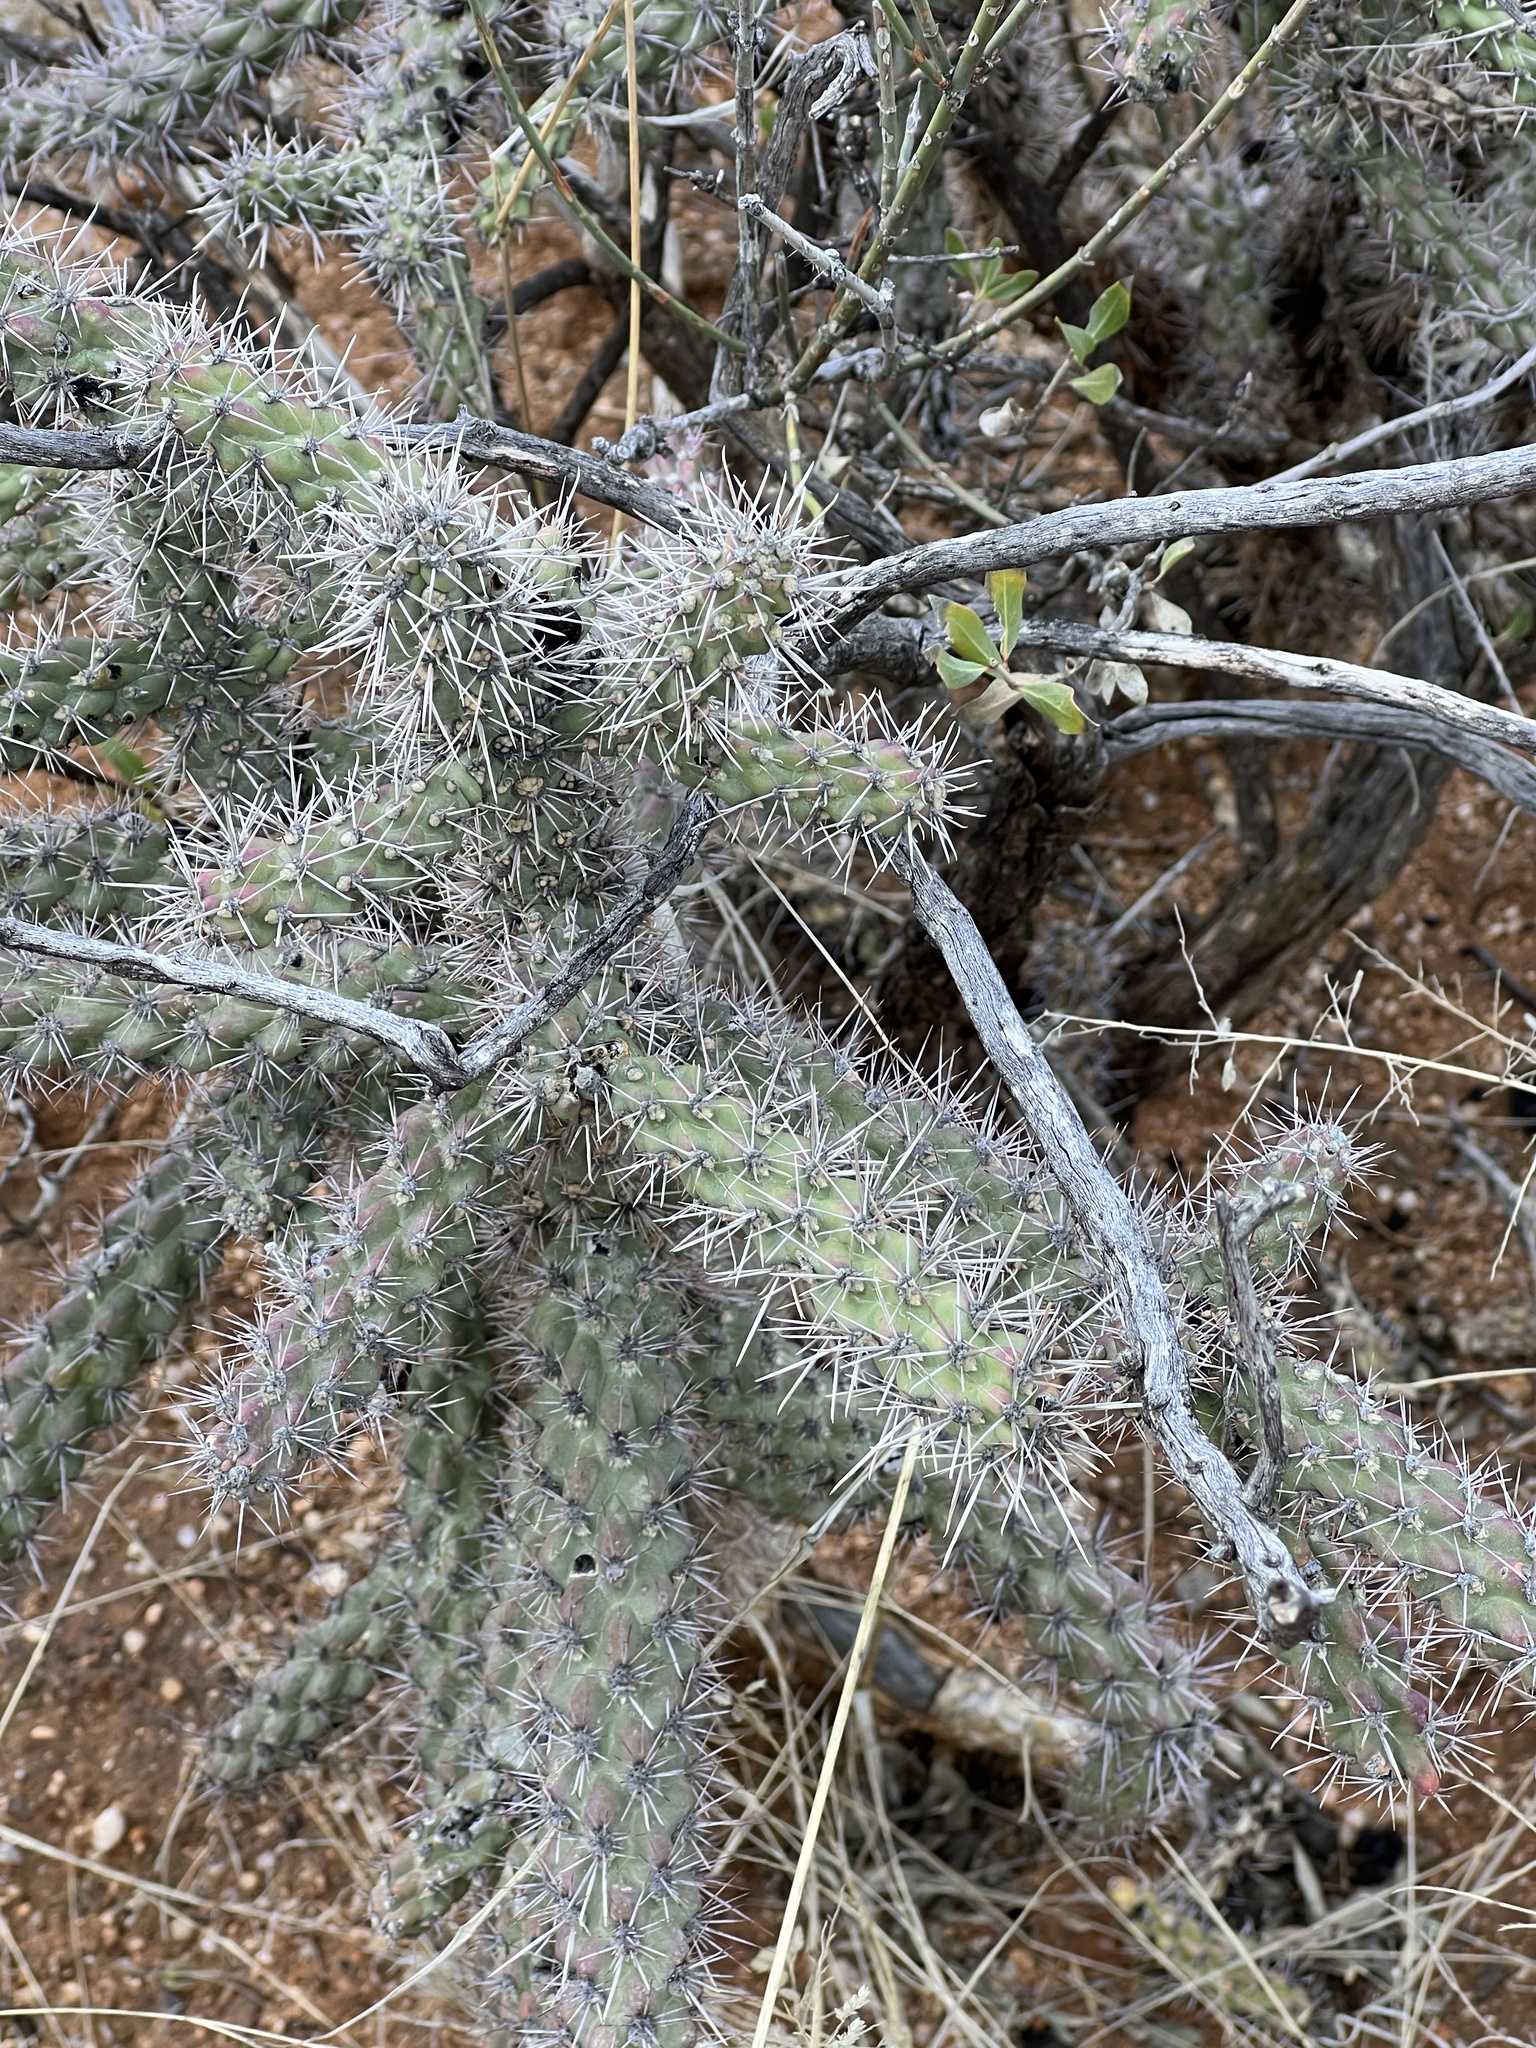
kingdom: Plantae
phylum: Tracheophyta
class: Magnoliopsida
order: Caryophyllales
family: Cactaceae
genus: Cylindropuntia
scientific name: Cylindropuntia imbricata
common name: Candelabrum cactus
